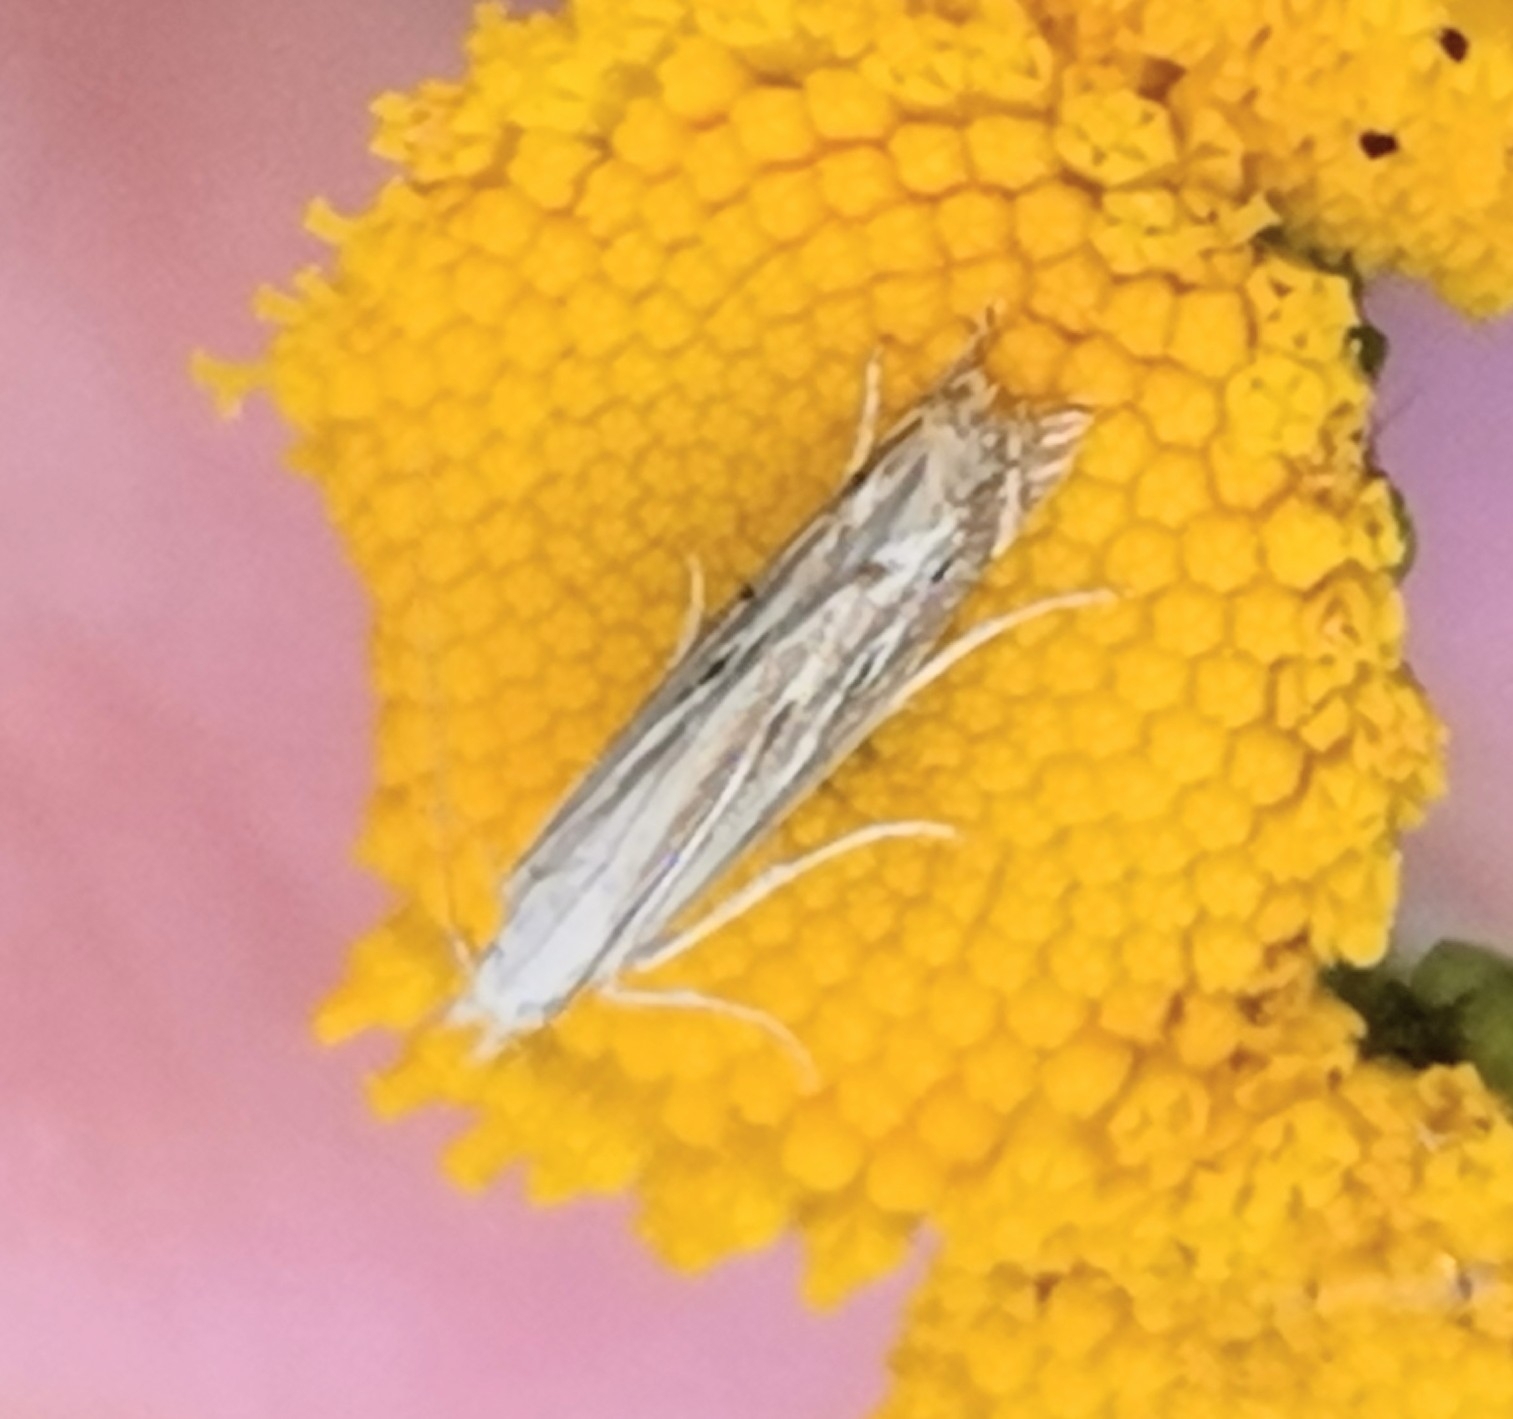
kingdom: Animalia
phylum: Arthropoda
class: Insecta
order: Lepidoptera
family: Gelechiidae
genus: Isophrictis
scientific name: Isophrictis striatella
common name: White-border neb
